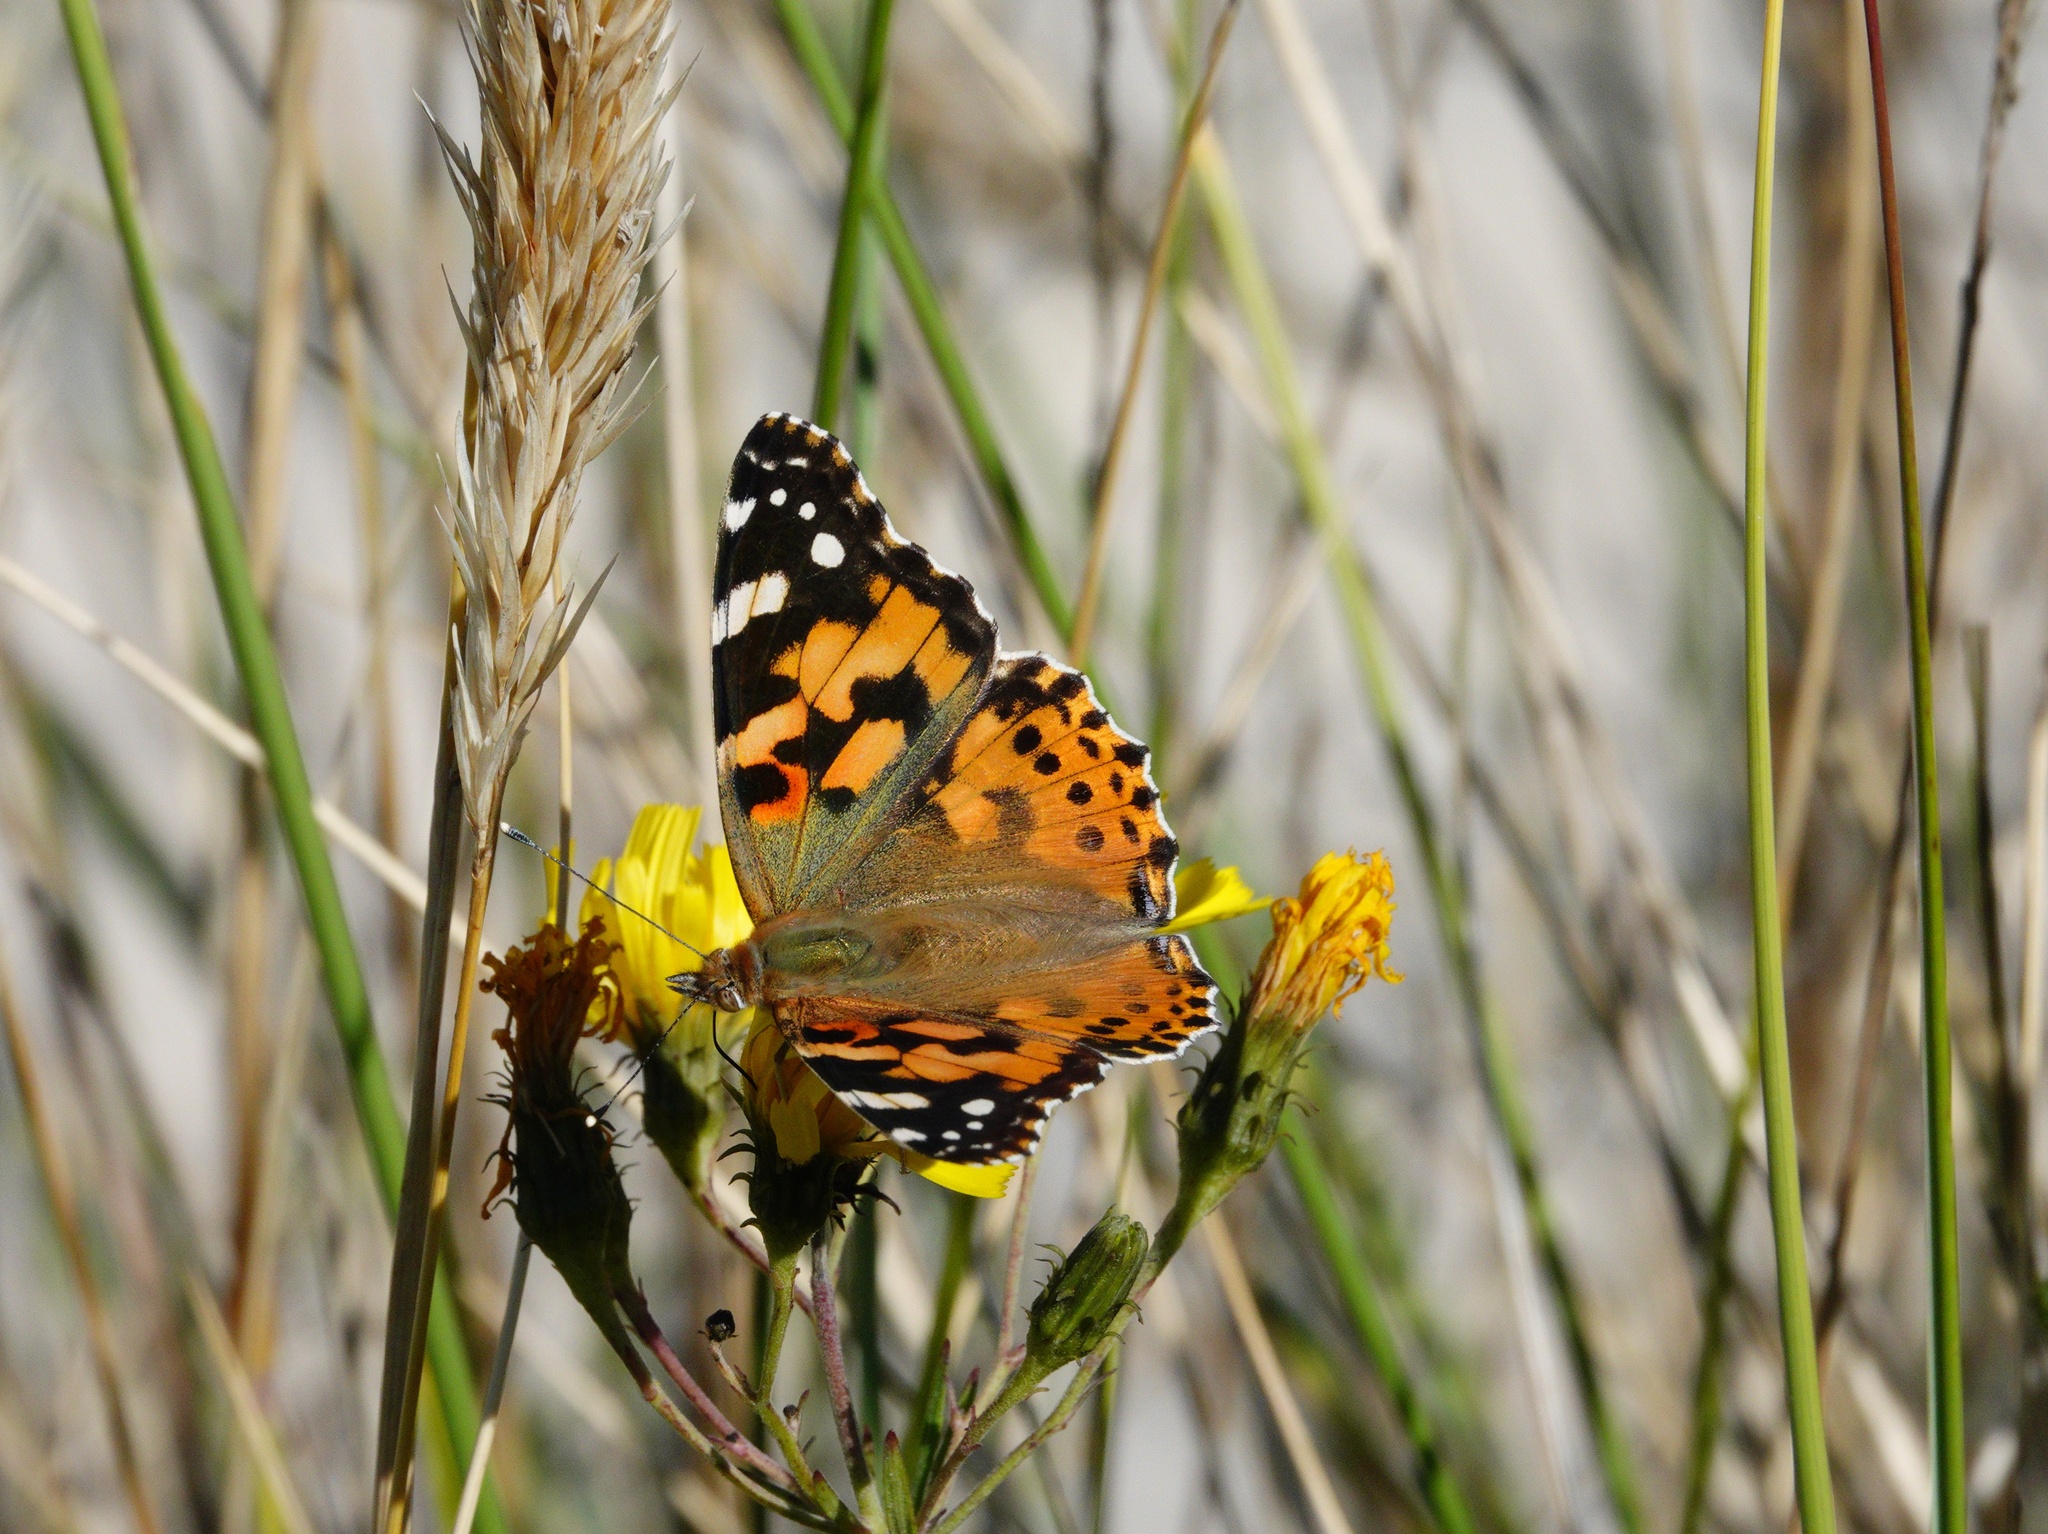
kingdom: Animalia
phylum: Arthropoda
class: Insecta
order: Lepidoptera
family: Nymphalidae
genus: Vanessa
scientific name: Vanessa cardui
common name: Painted lady
